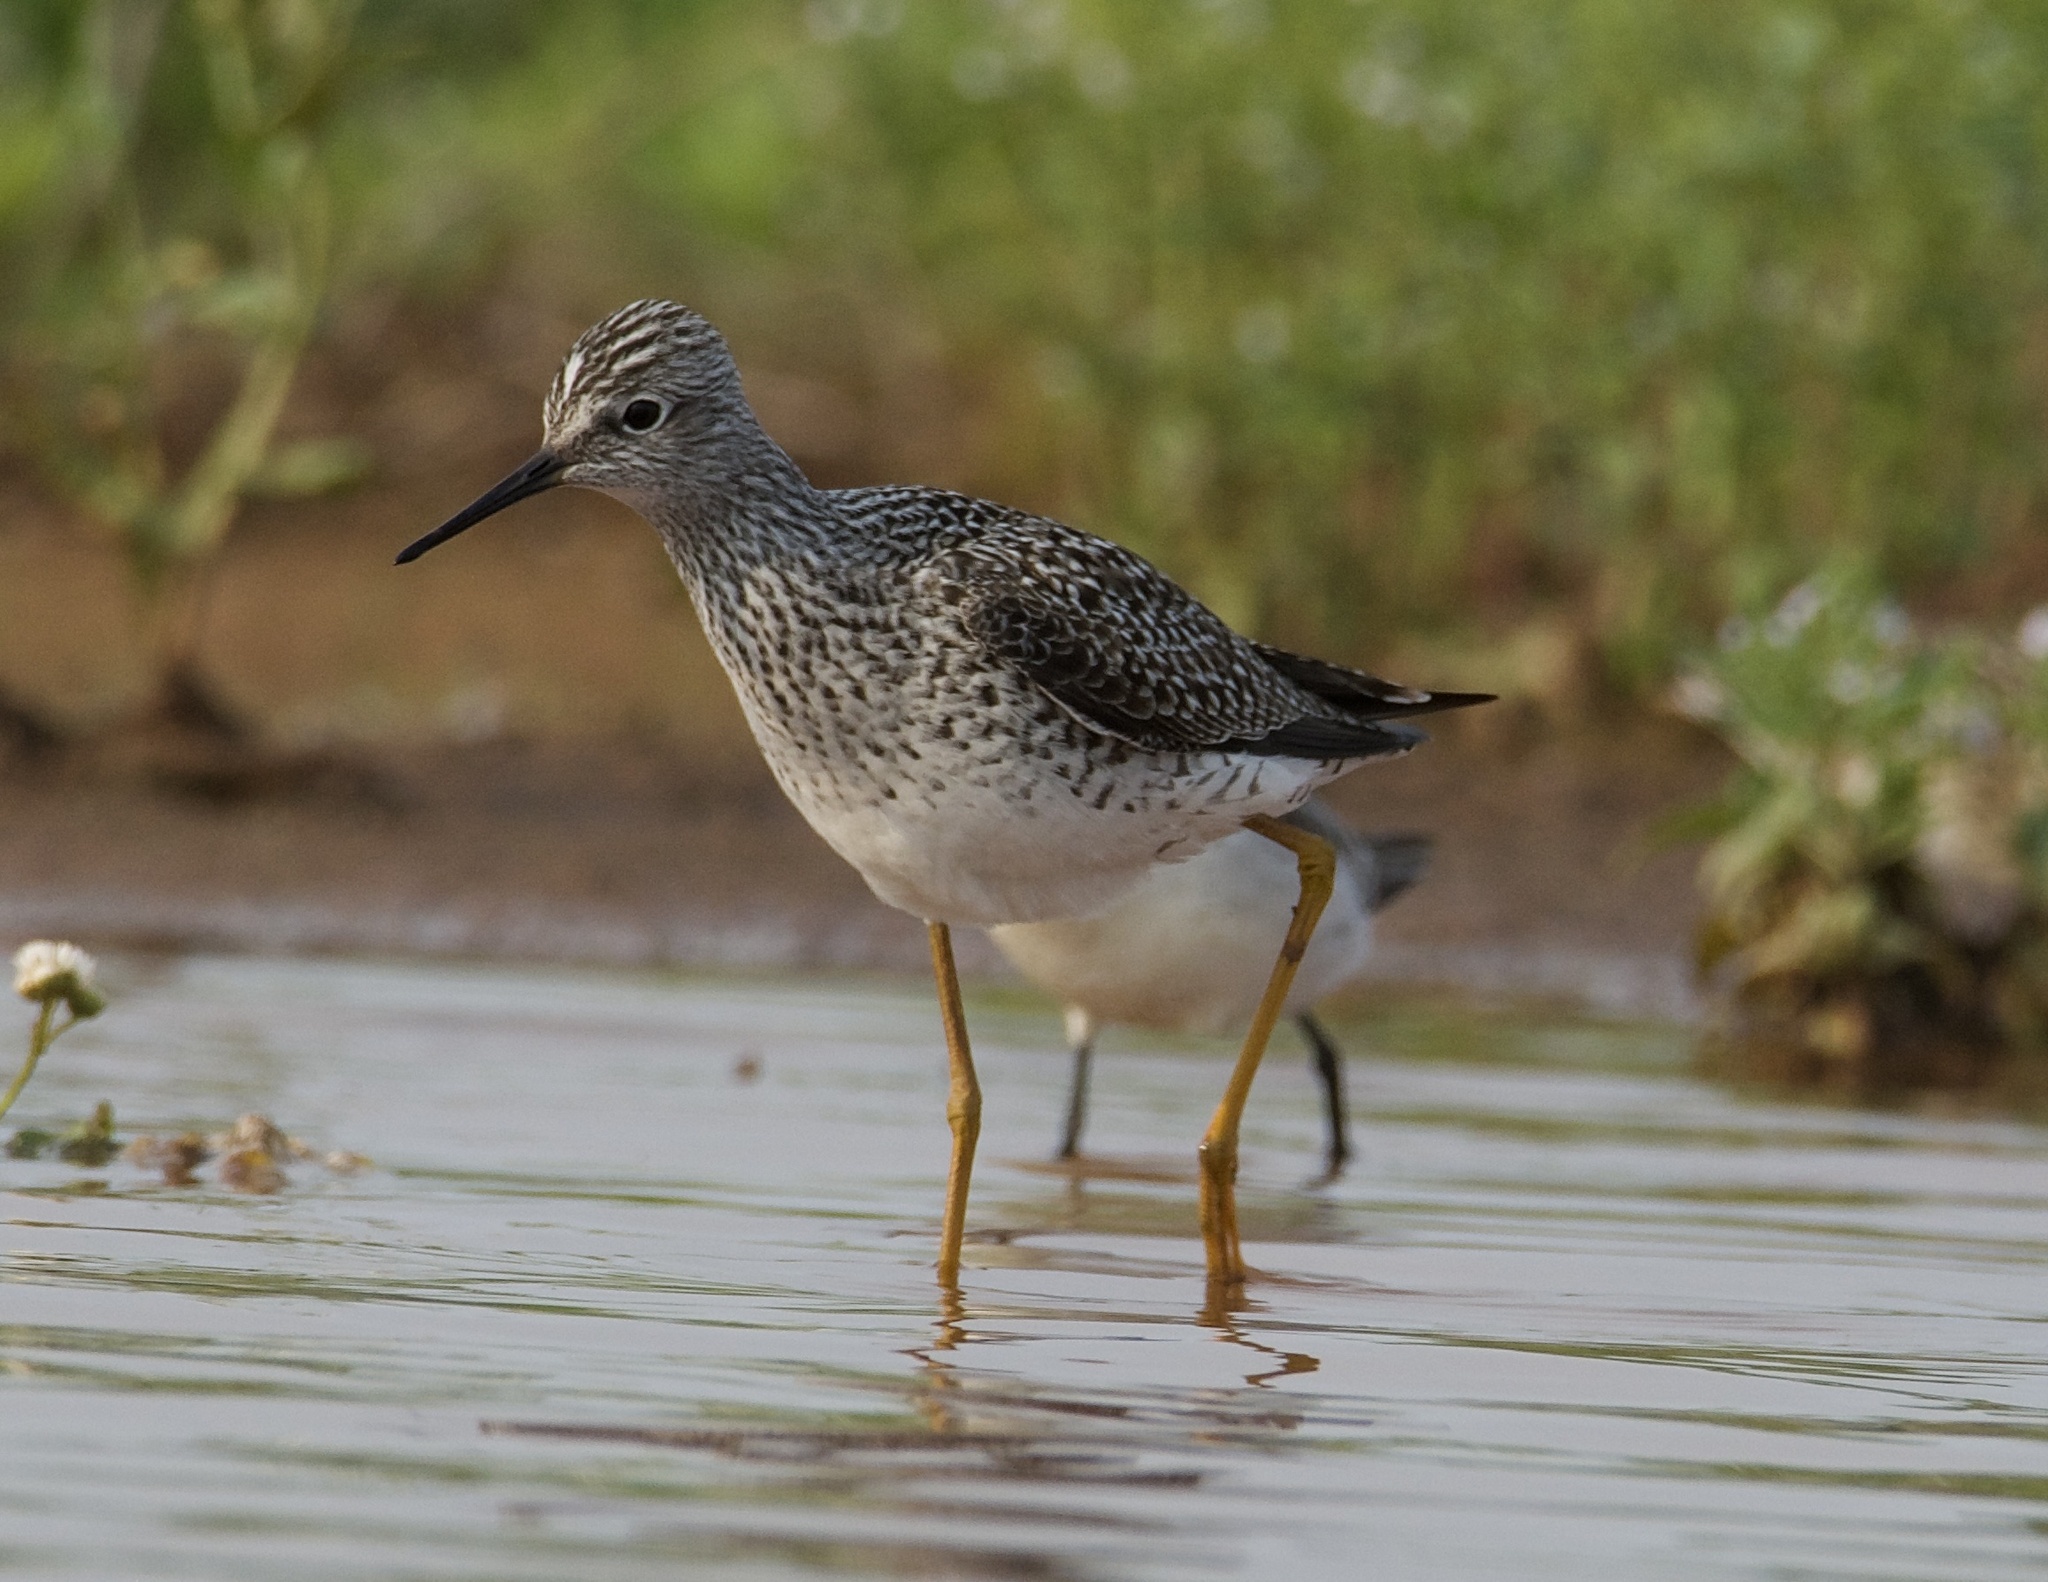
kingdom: Animalia
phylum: Chordata
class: Aves
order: Charadriiformes
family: Scolopacidae
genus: Tringa
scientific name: Tringa flavipes
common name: Lesser yellowlegs
